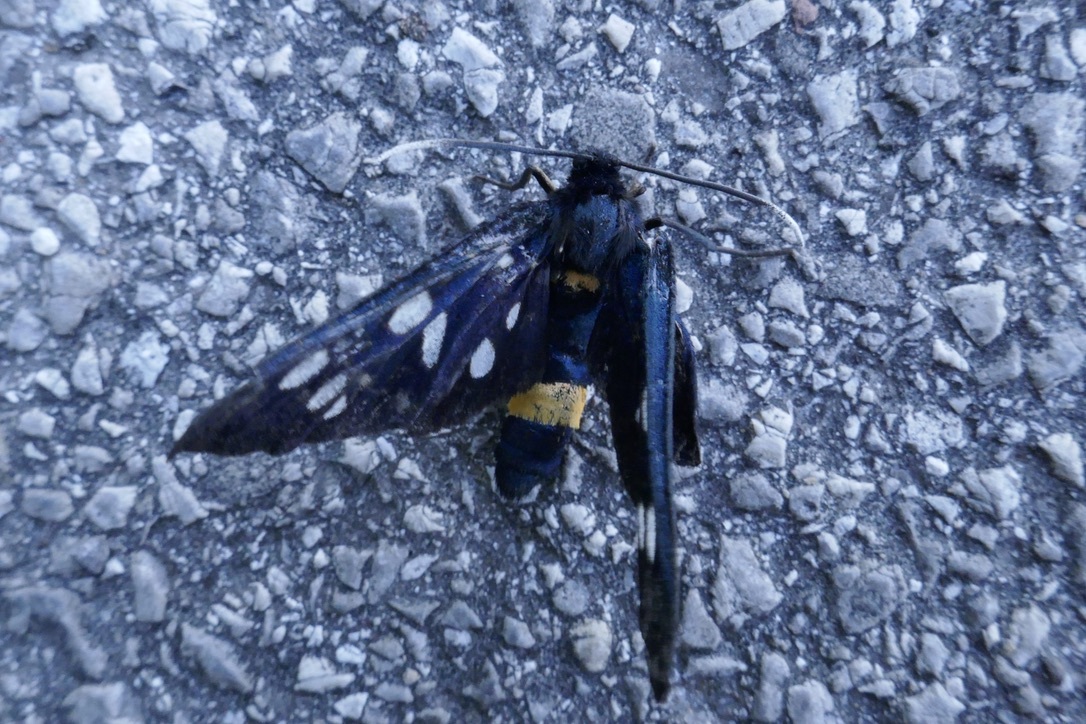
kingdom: Animalia
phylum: Arthropoda
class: Insecta
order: Lepidoptera
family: Erebidae
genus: Amata
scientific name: Amata phegea
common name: Nine-spotted
